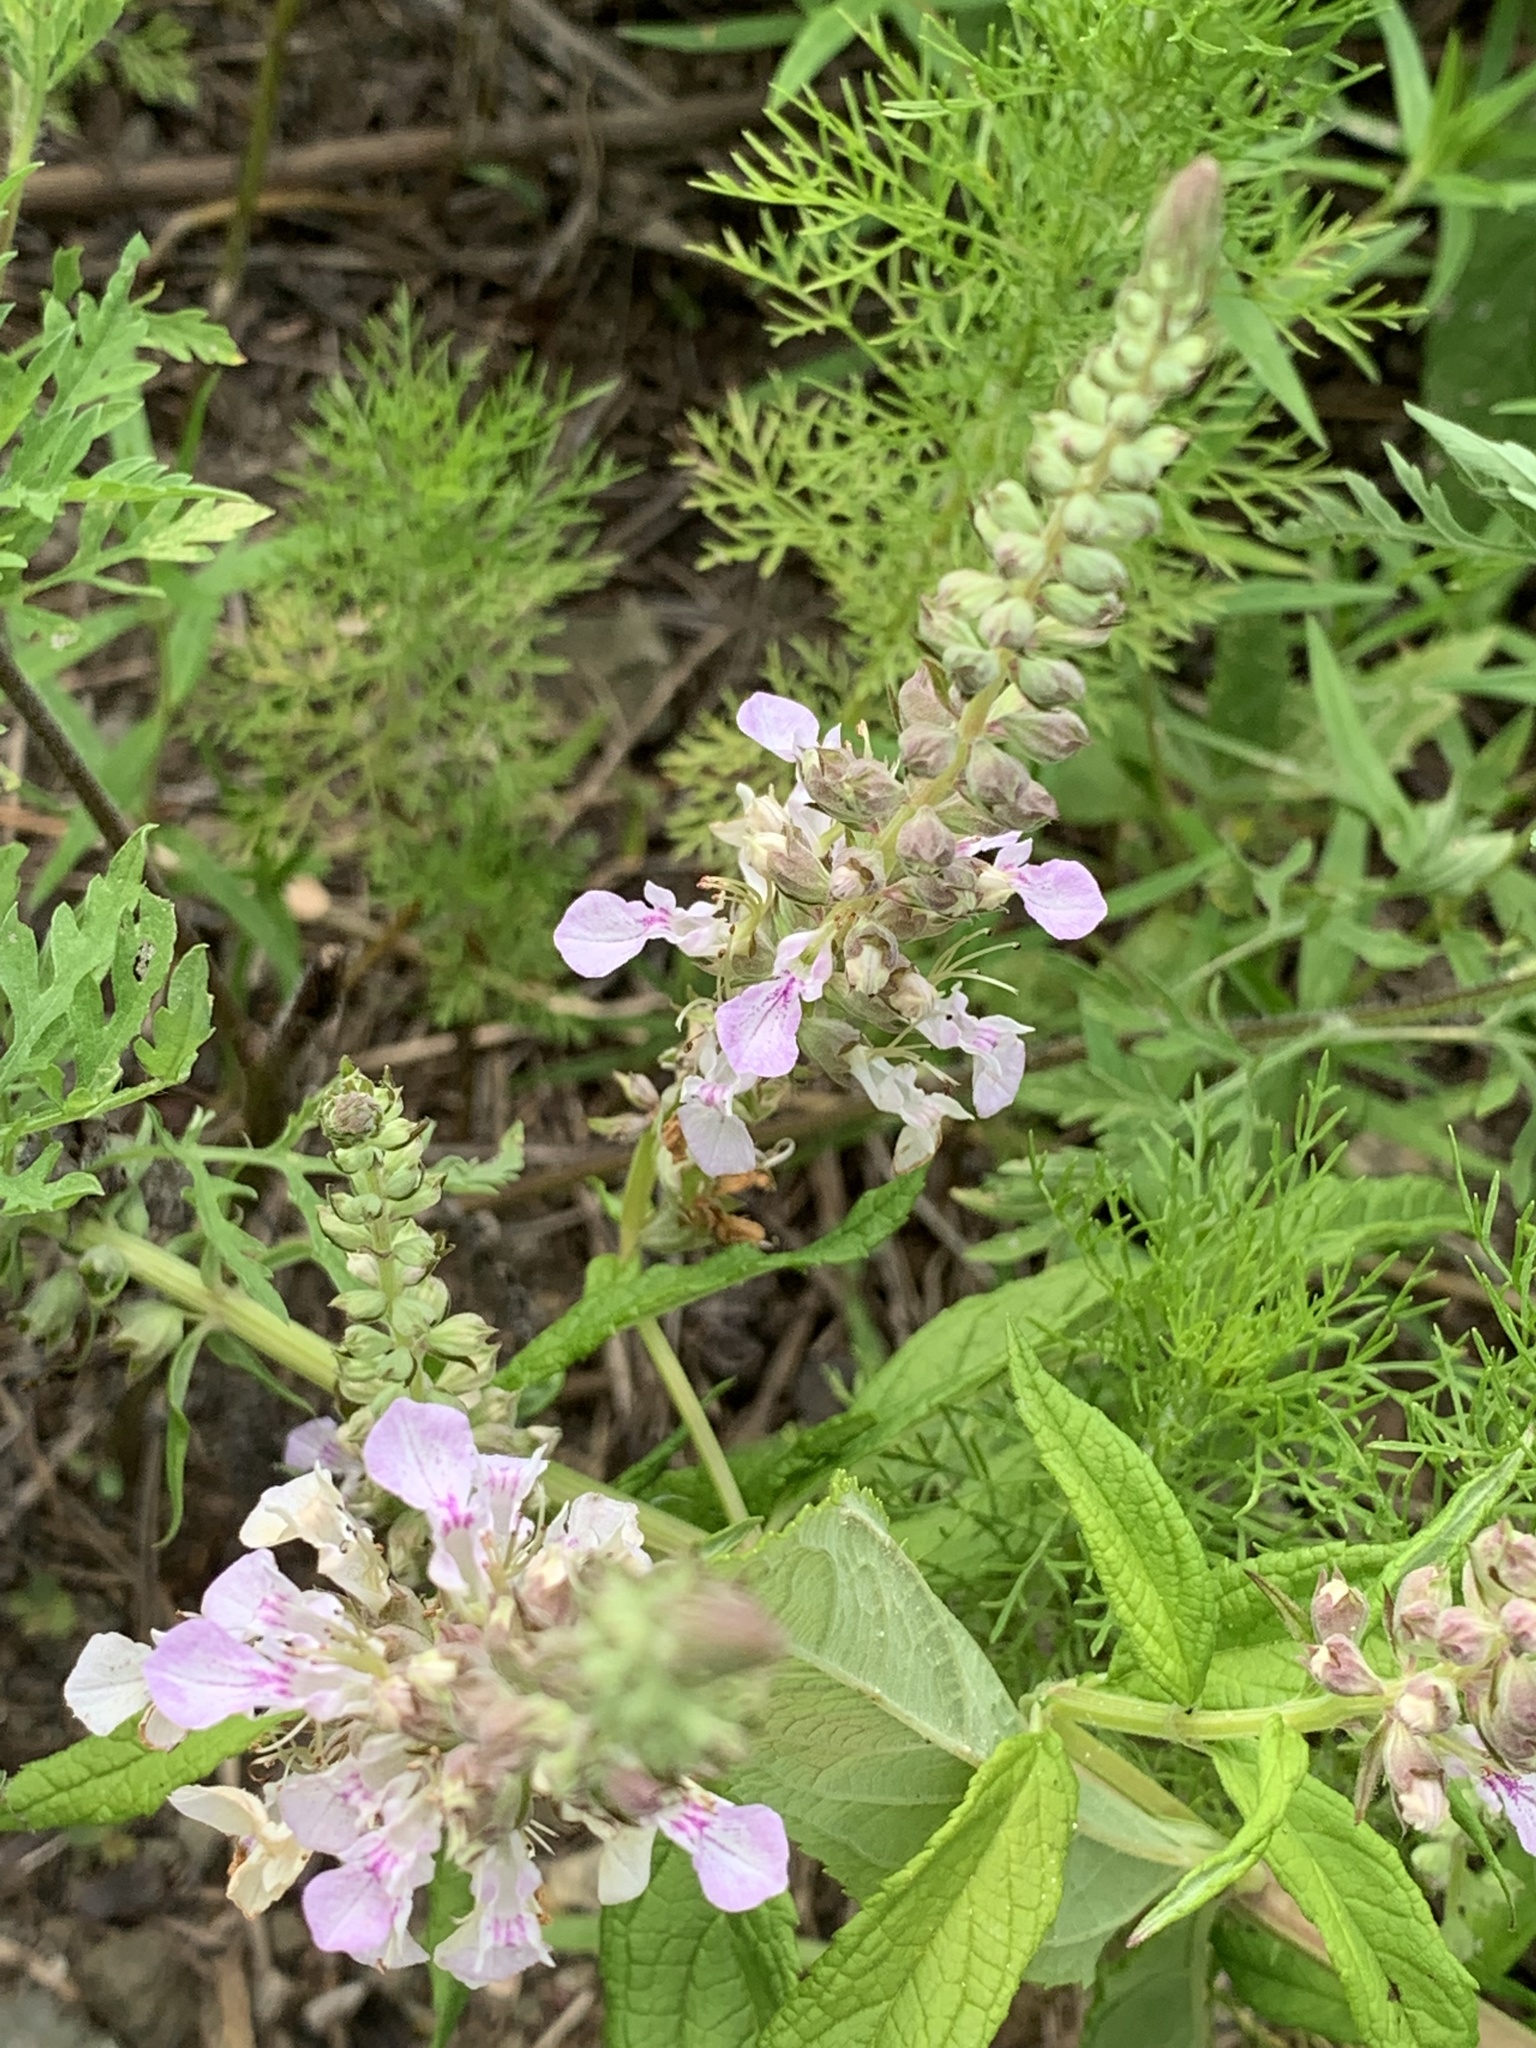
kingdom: Plantae
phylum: Tracheophyta
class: Magnoliopsida
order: Lamiales
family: Lamiaceae
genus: Teucrium
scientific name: Teucrium canadense
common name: American germander
